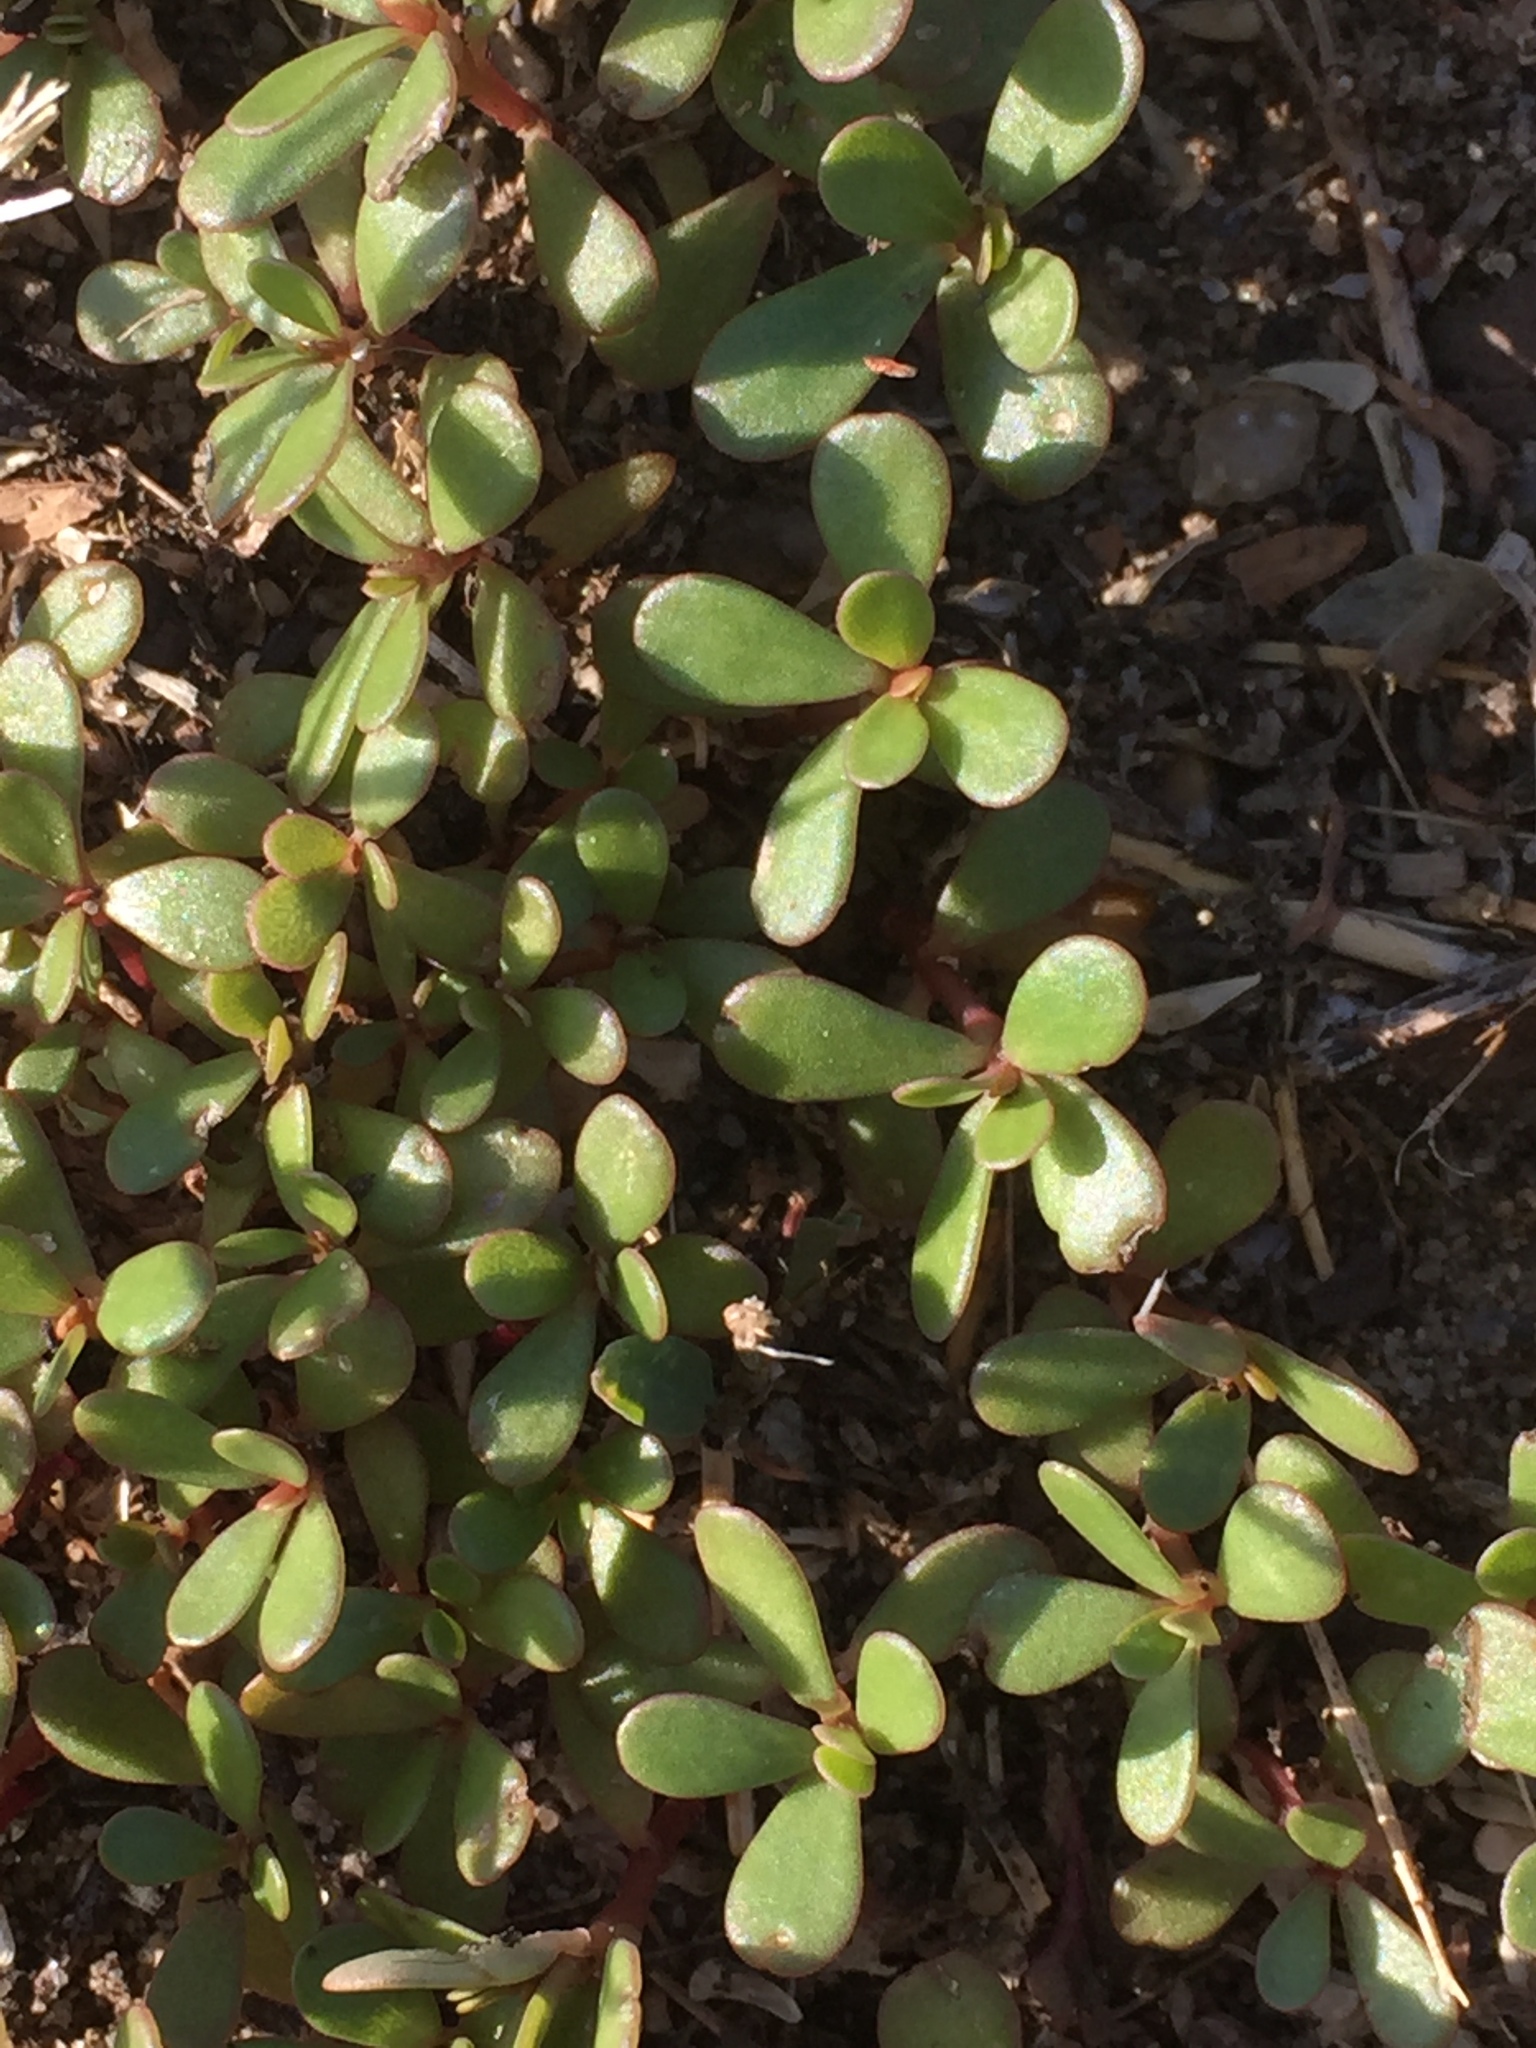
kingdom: Plantae
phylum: Tracheophyta
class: Magnoliopsida
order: Caryophyllales
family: Portulacaceae
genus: Portulaca
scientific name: Portulaca oleracea
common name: Common purslane
